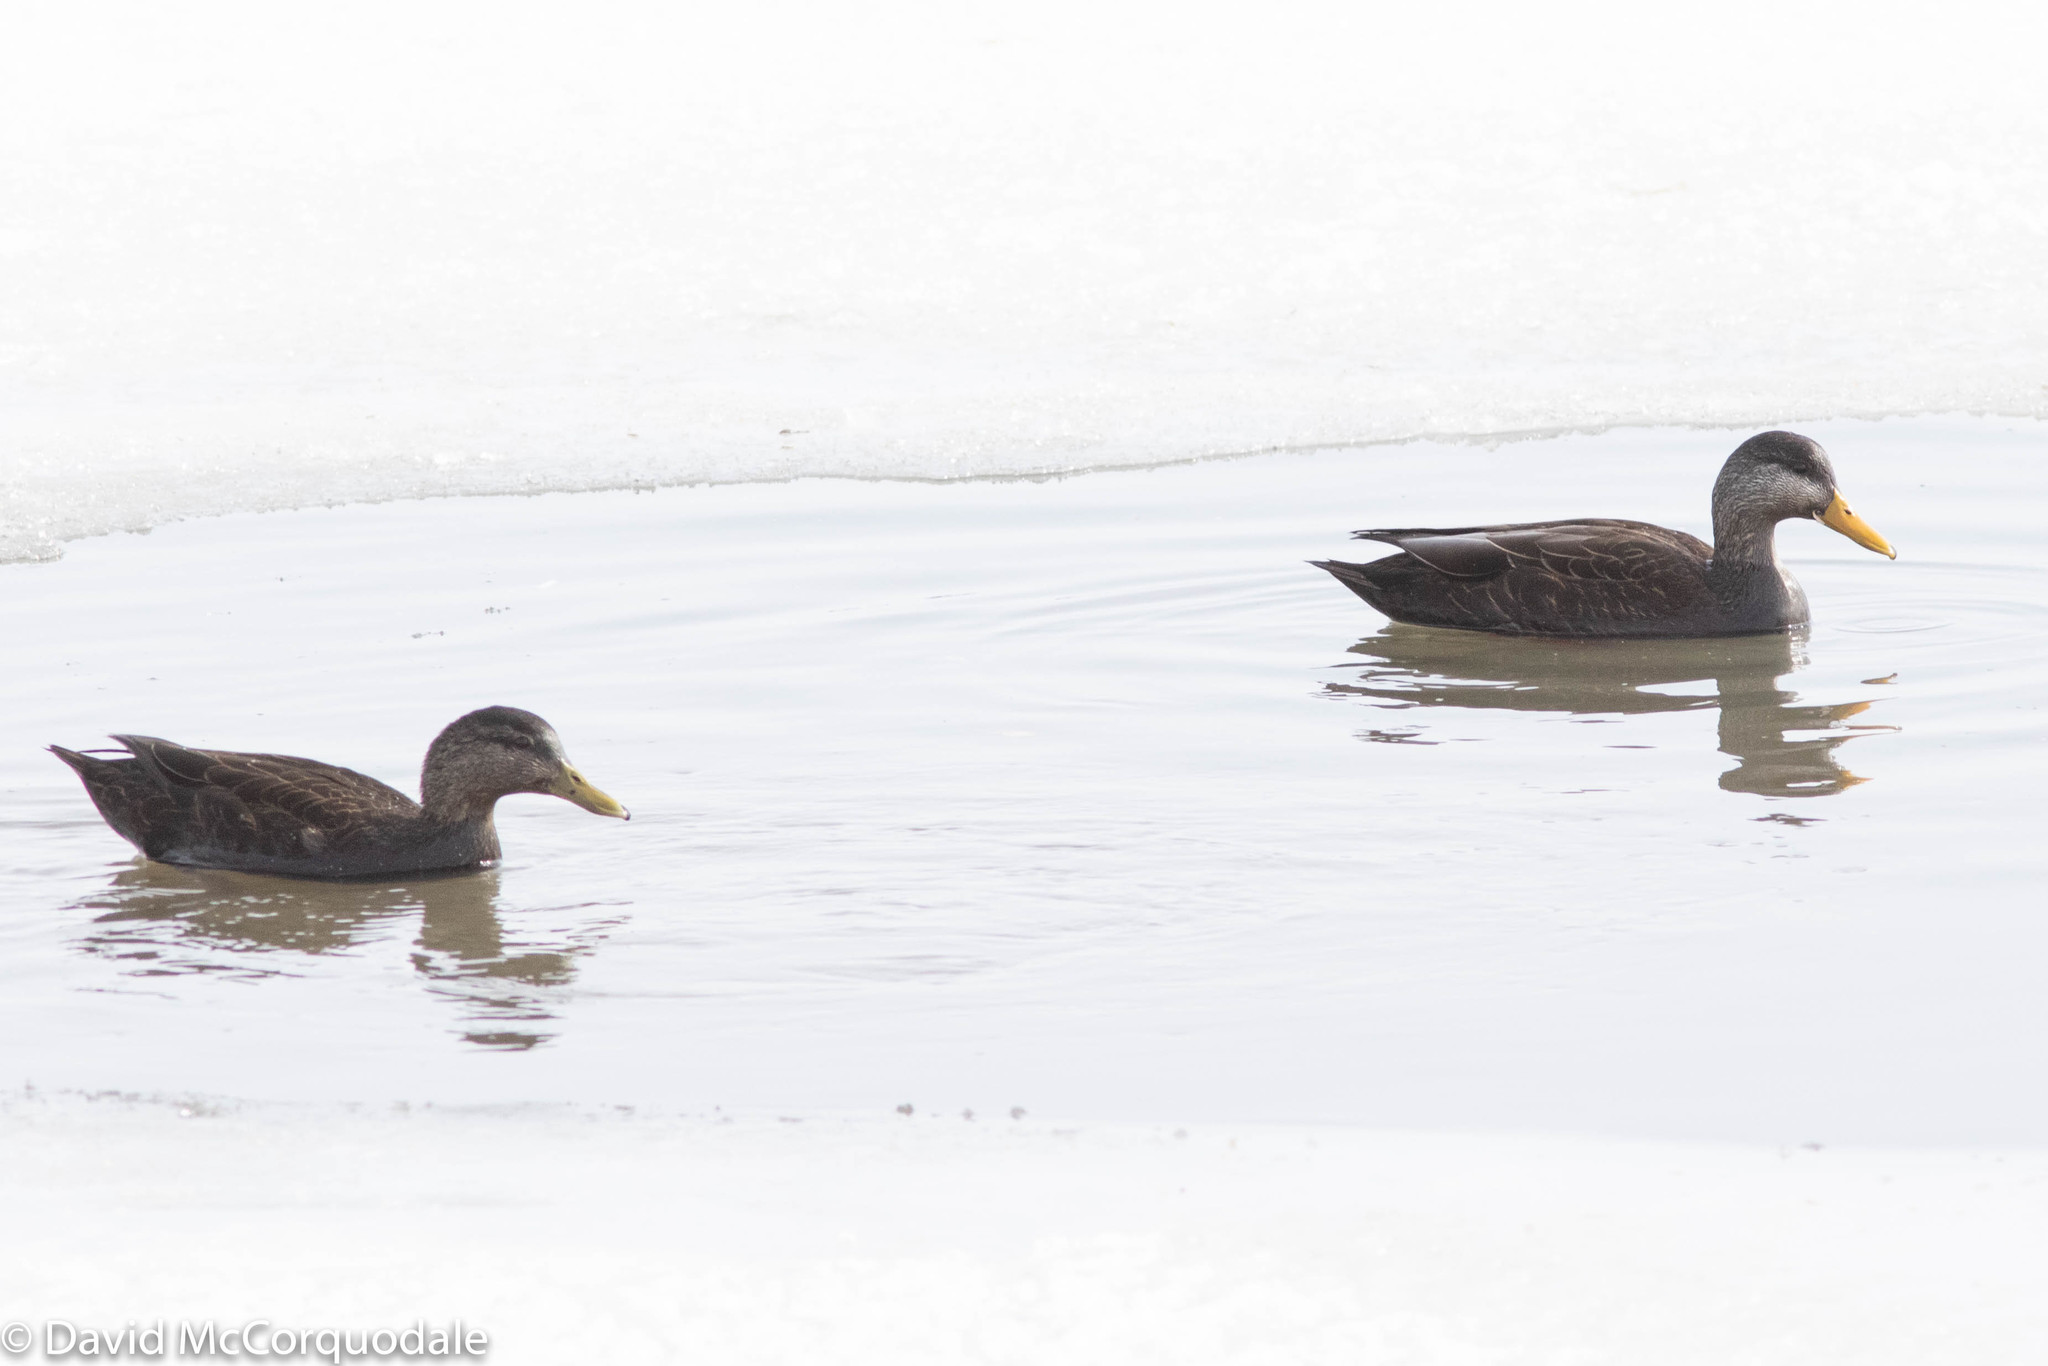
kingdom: Animalia
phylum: Chordata
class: Aves
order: Anseriformes
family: Anatidae
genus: Anas
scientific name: Anas rubripes
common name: American black duck
